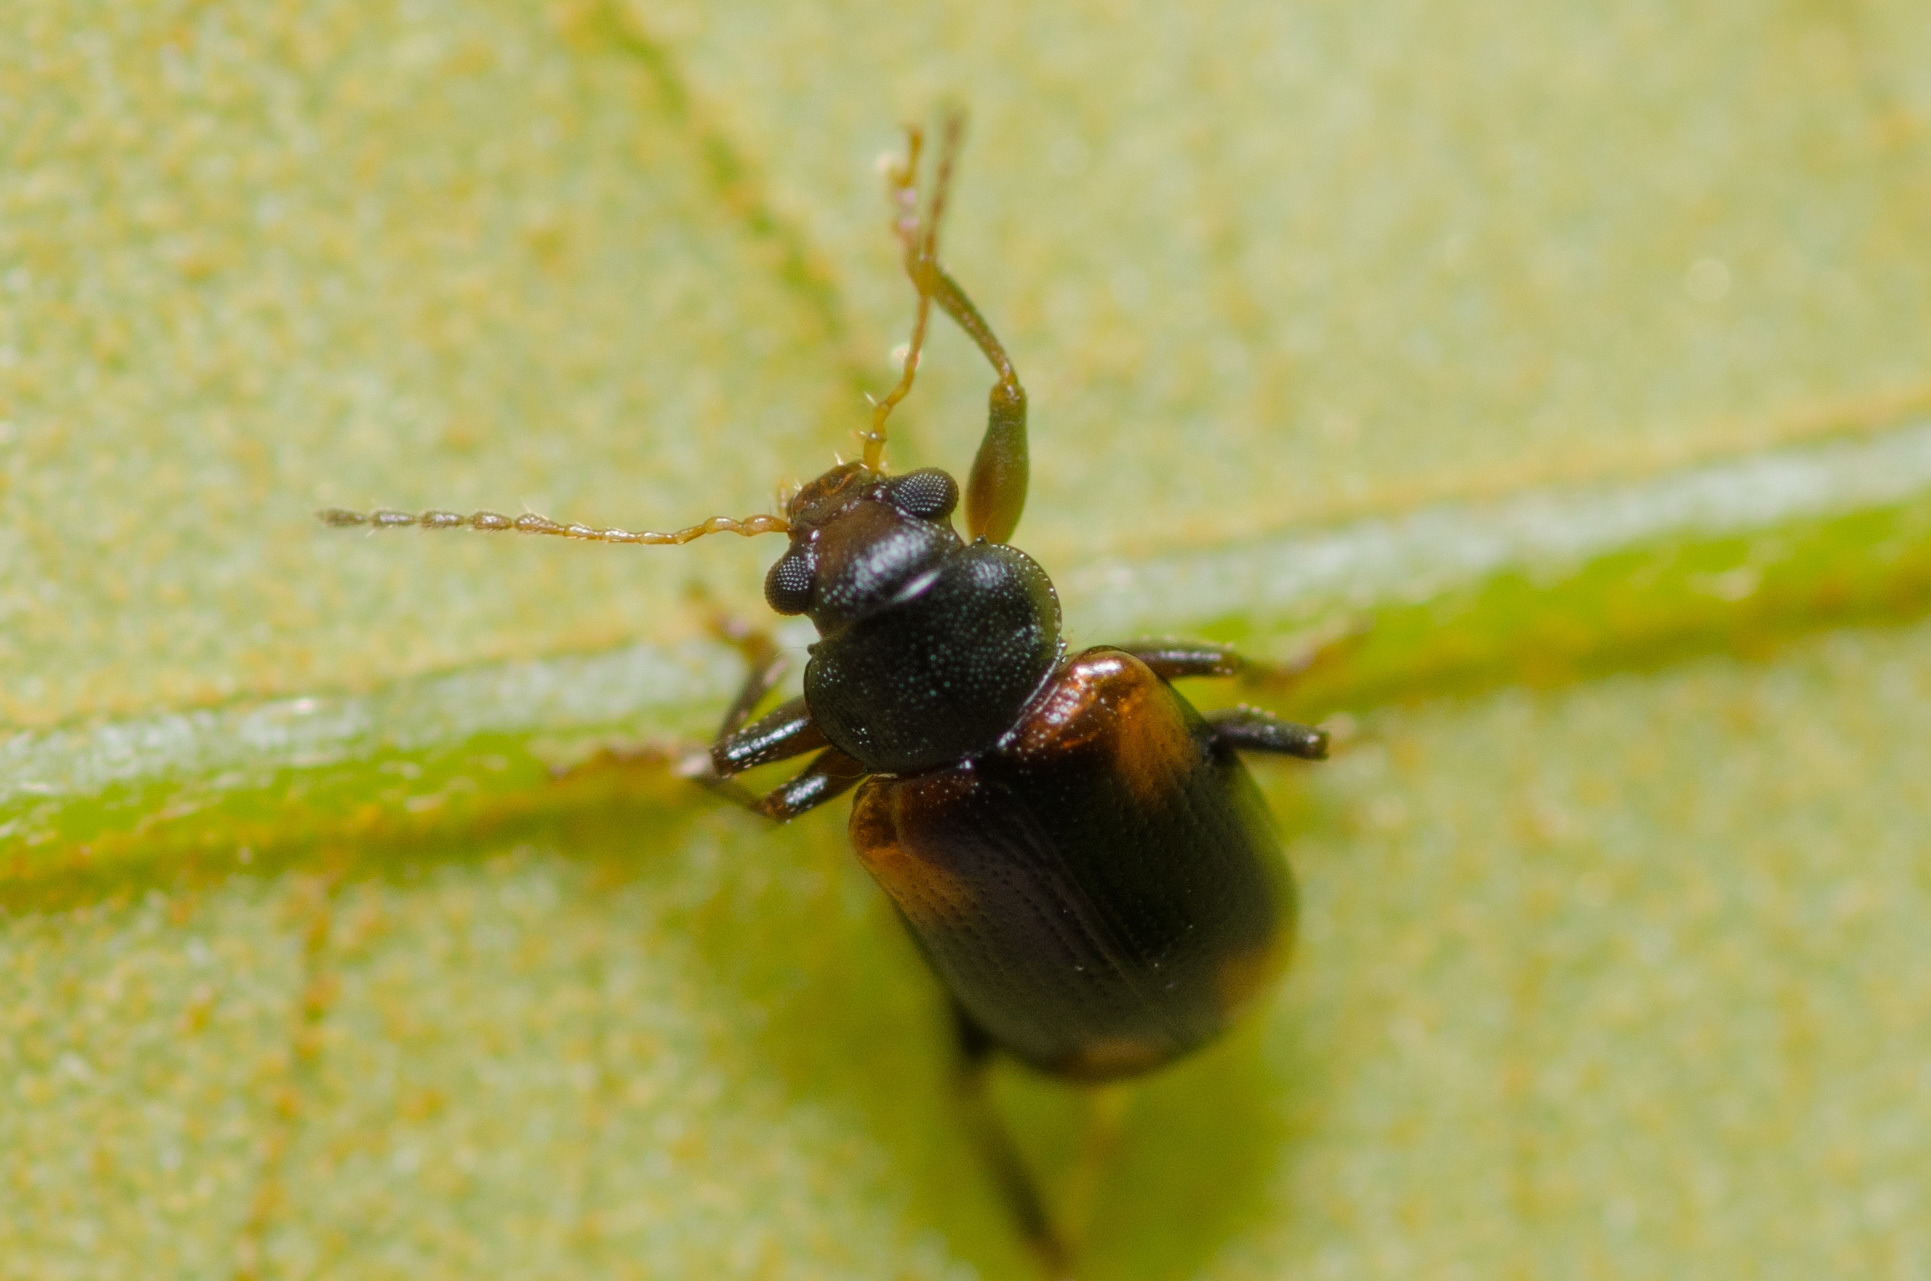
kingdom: Animalia
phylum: Arthropoda
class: Insecta
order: Coleoptera
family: Chrysomelidae
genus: Metachroma
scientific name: Metachroma quercatum
